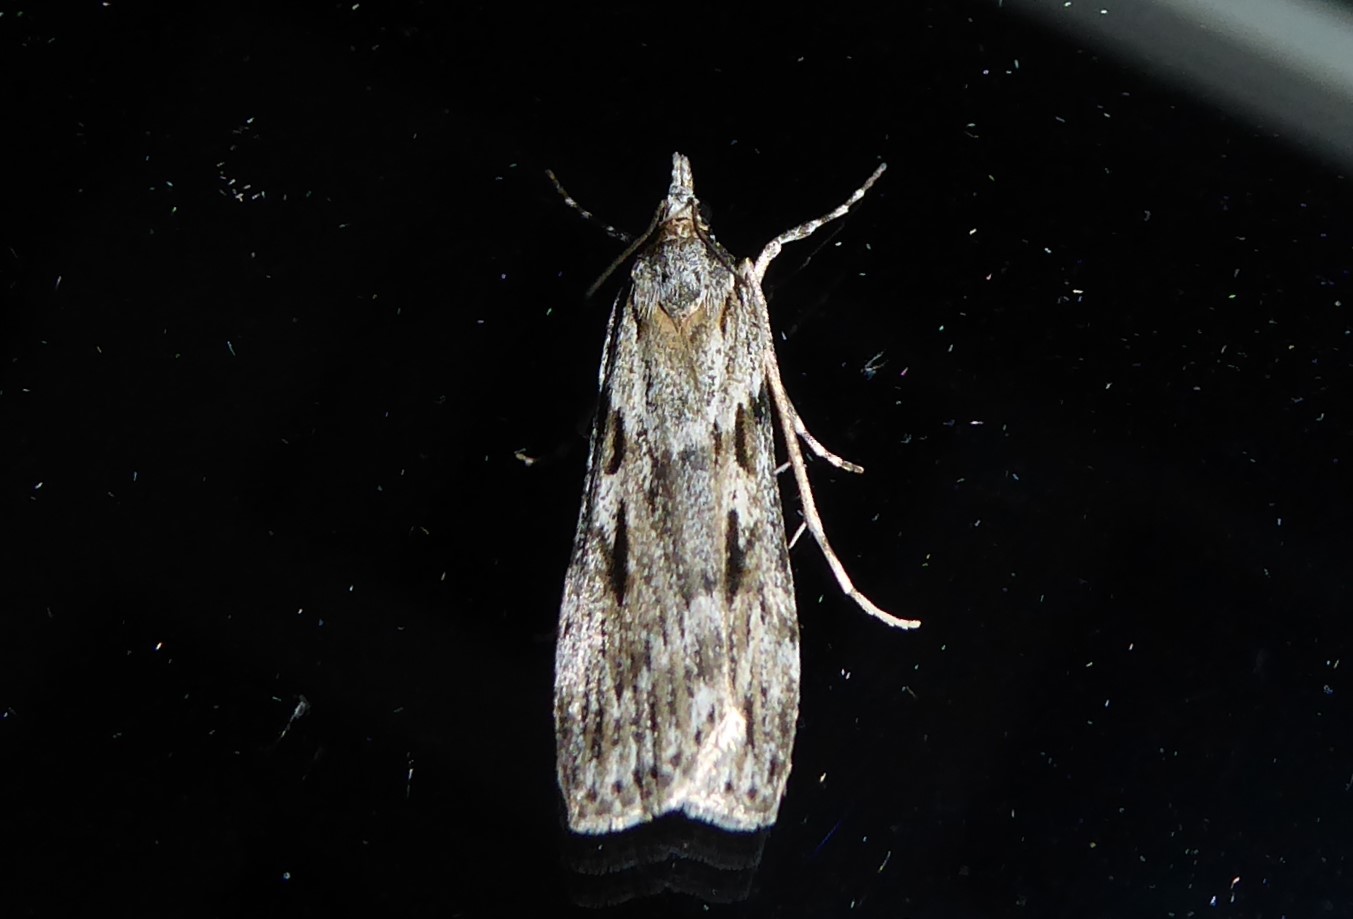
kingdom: Animalia
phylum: Arthropoda
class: Insecta
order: Lepidoptera
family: Crambidae
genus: Scoparia
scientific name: Scoparia halopis
